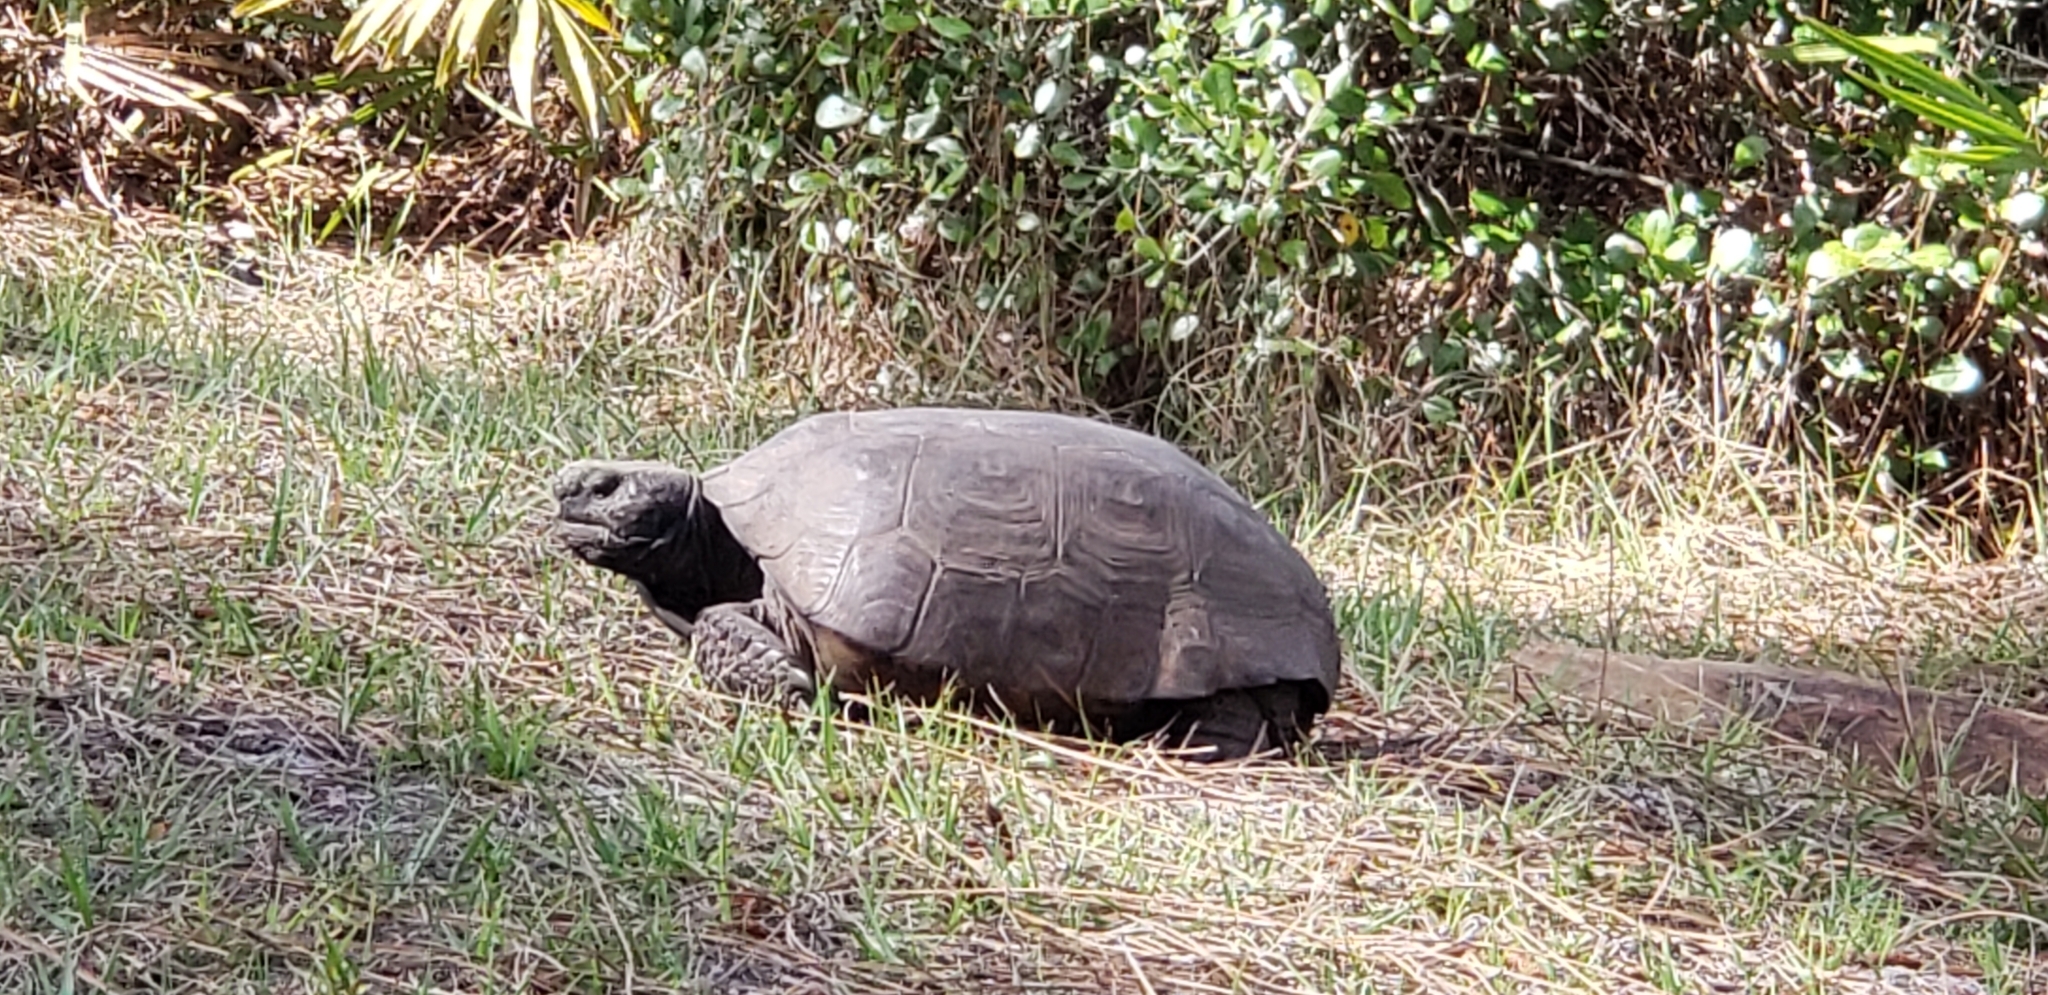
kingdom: Animalia
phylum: Chordata
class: Testudines
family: Testudinidae
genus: Gopherus
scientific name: Gopherus polyphemus
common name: Florida gopher tortoise
